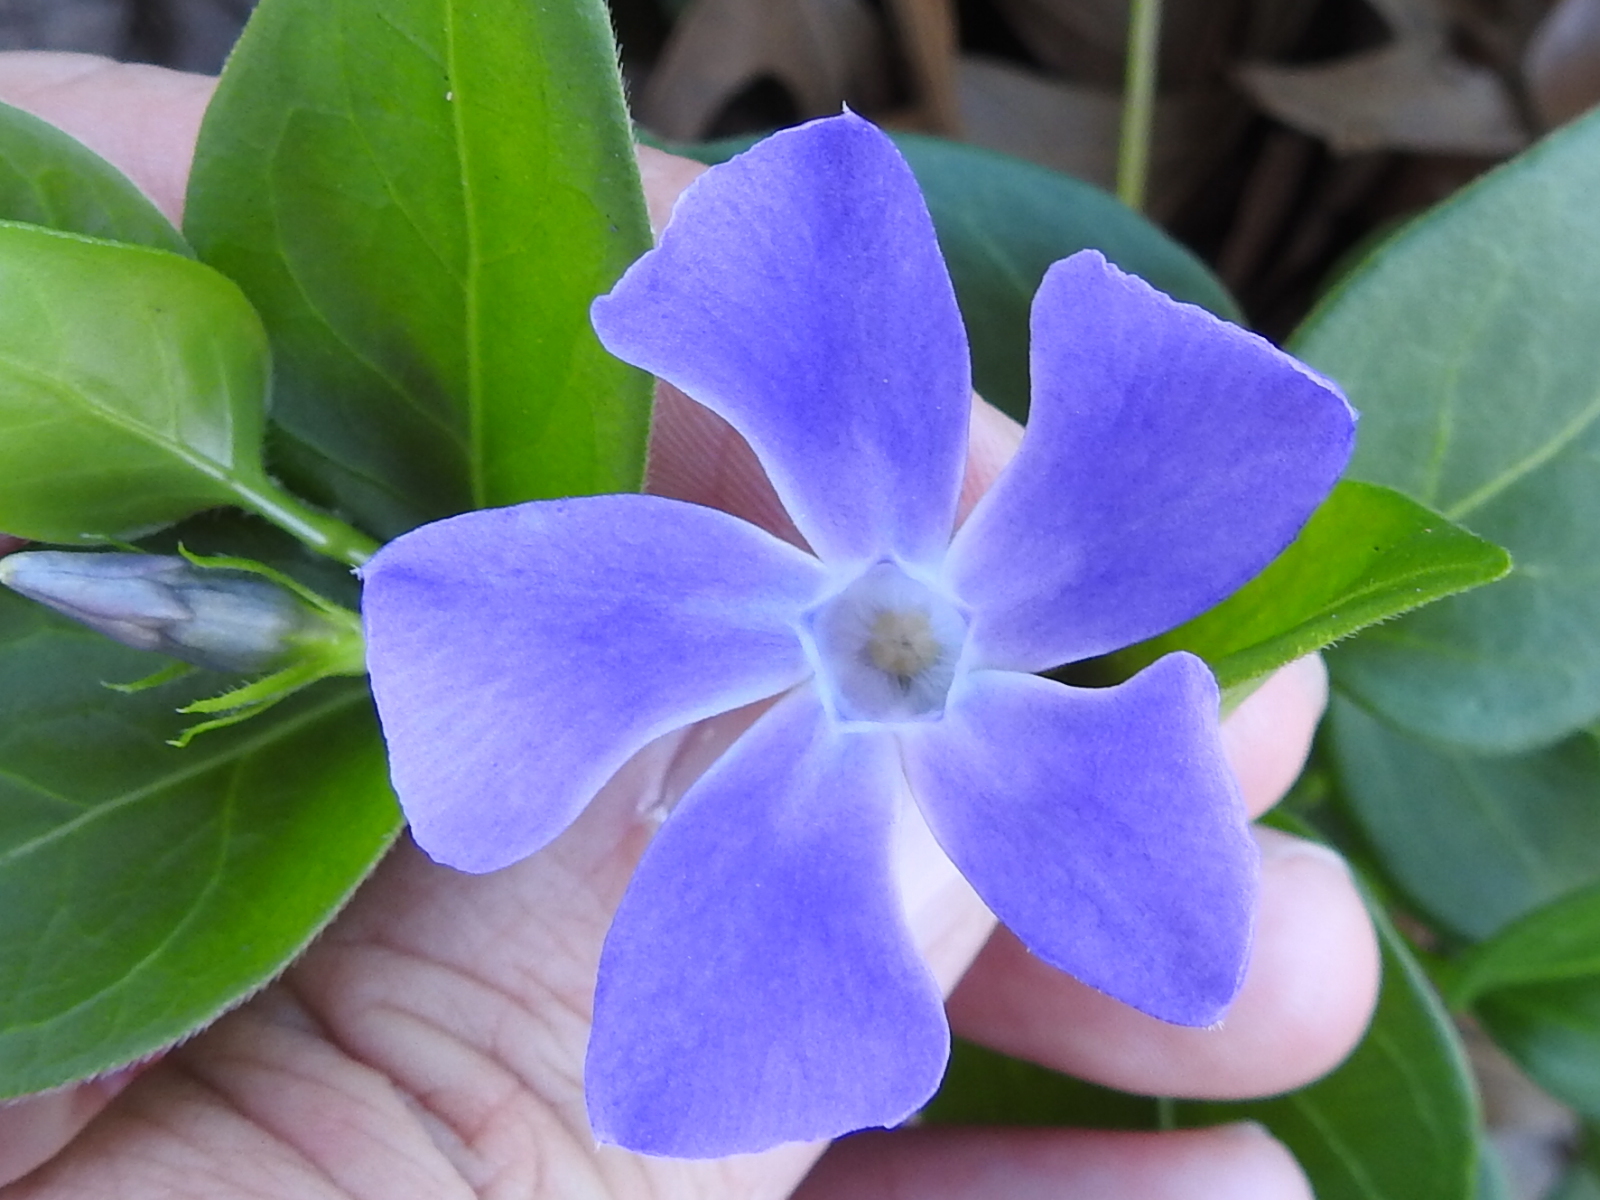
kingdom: Plantae
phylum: Tracheophyta
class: Magnoliopsida
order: Gentianales
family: Apocynaceae
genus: Vinca
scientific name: Vinca major
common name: Greater periwinkle
